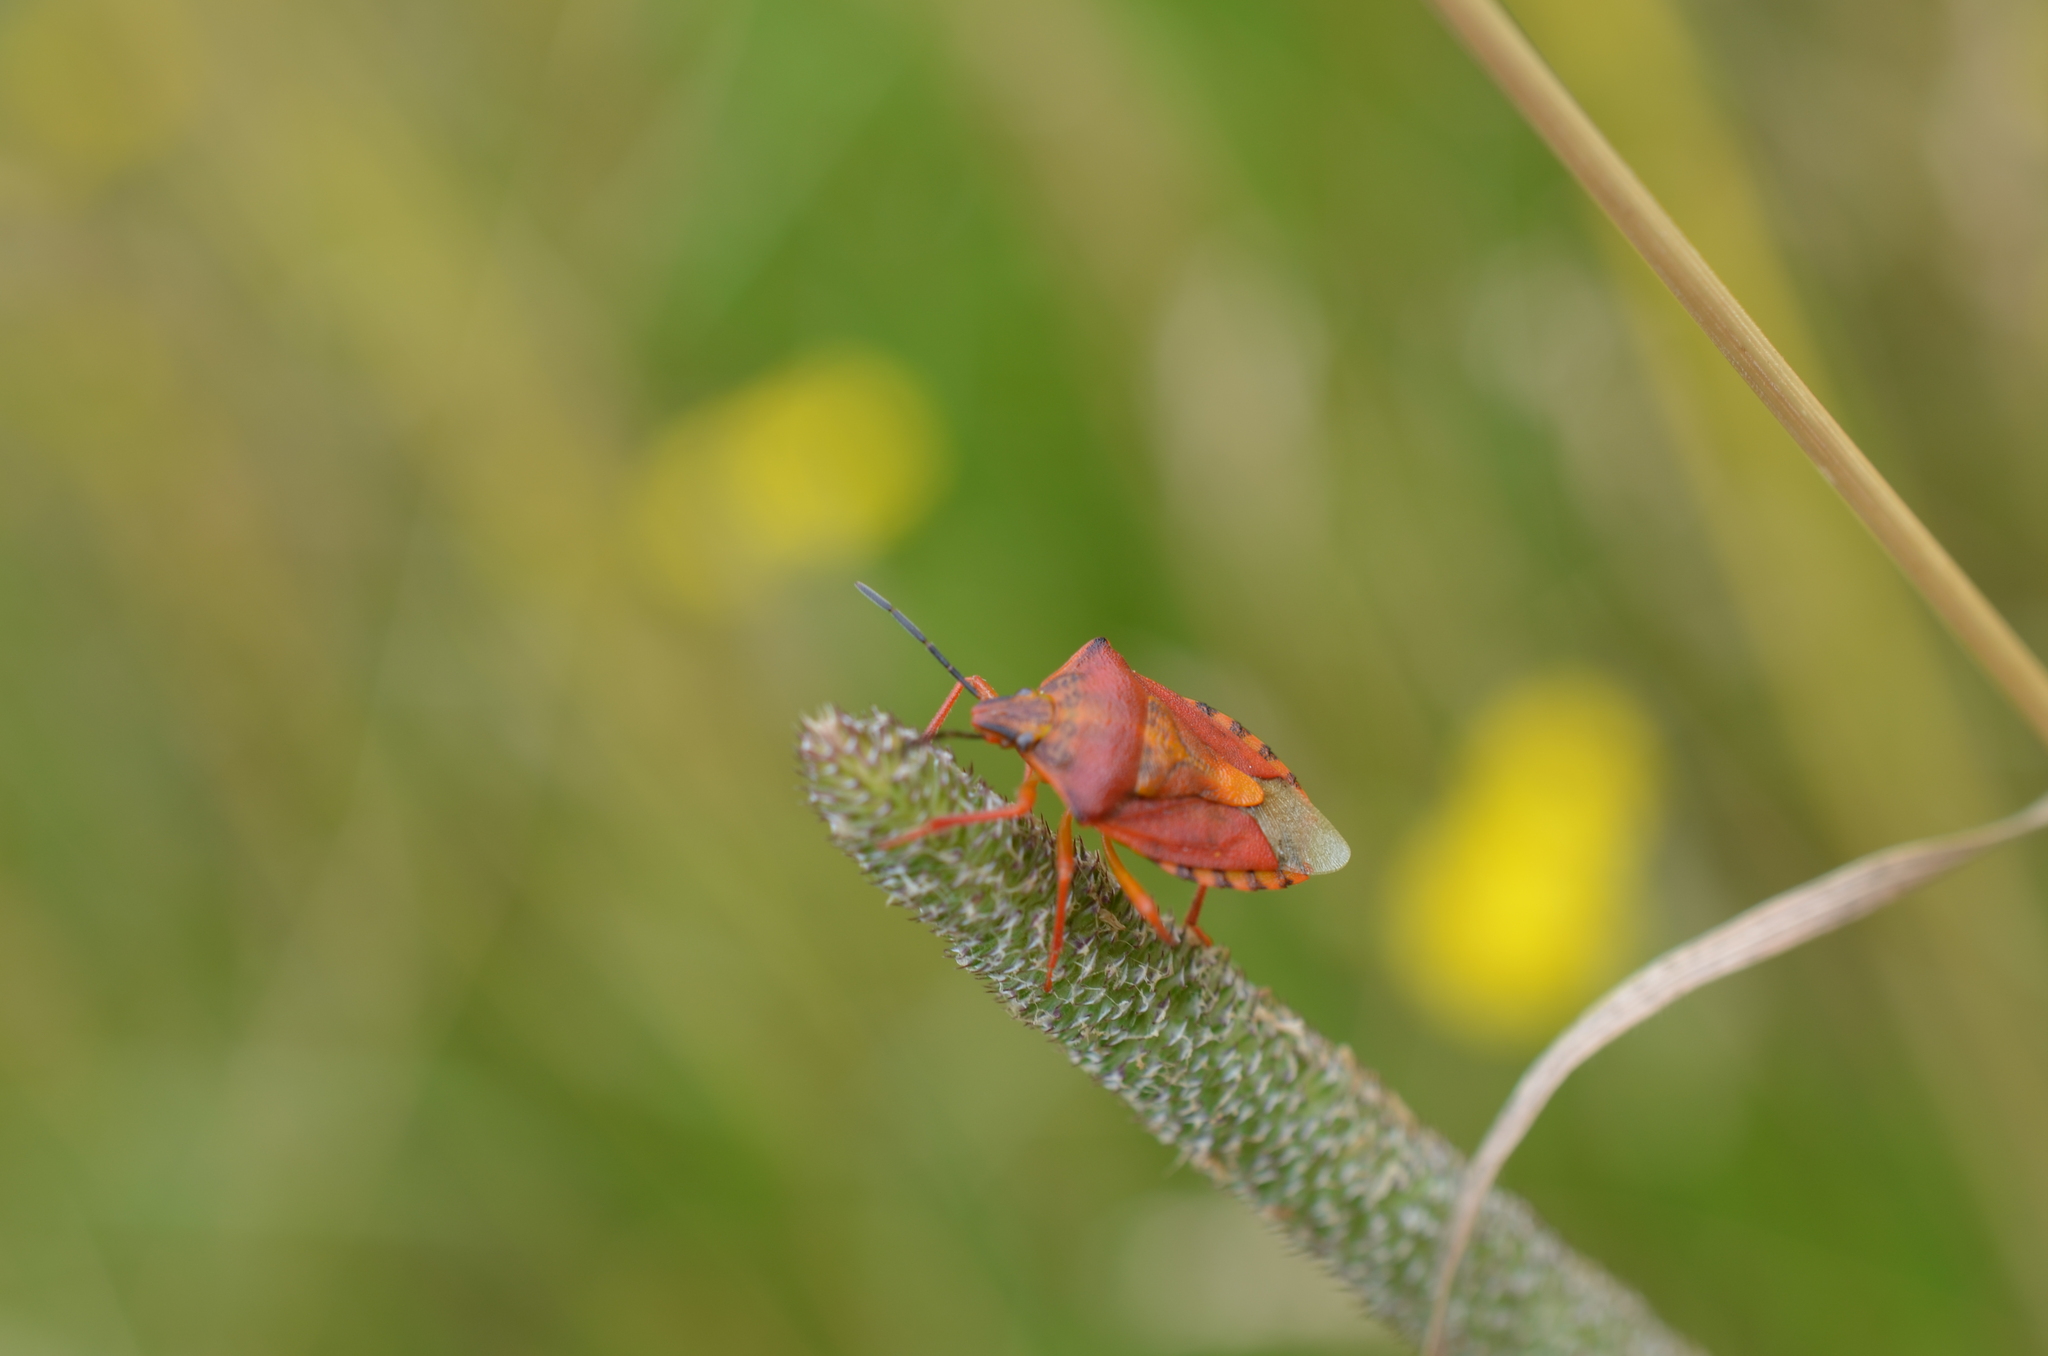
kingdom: Animalia
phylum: Arthropoda
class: Insecta
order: Hemiptera
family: Pentatomidae
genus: Carpocoris
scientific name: Carpocoris purpureipennis
